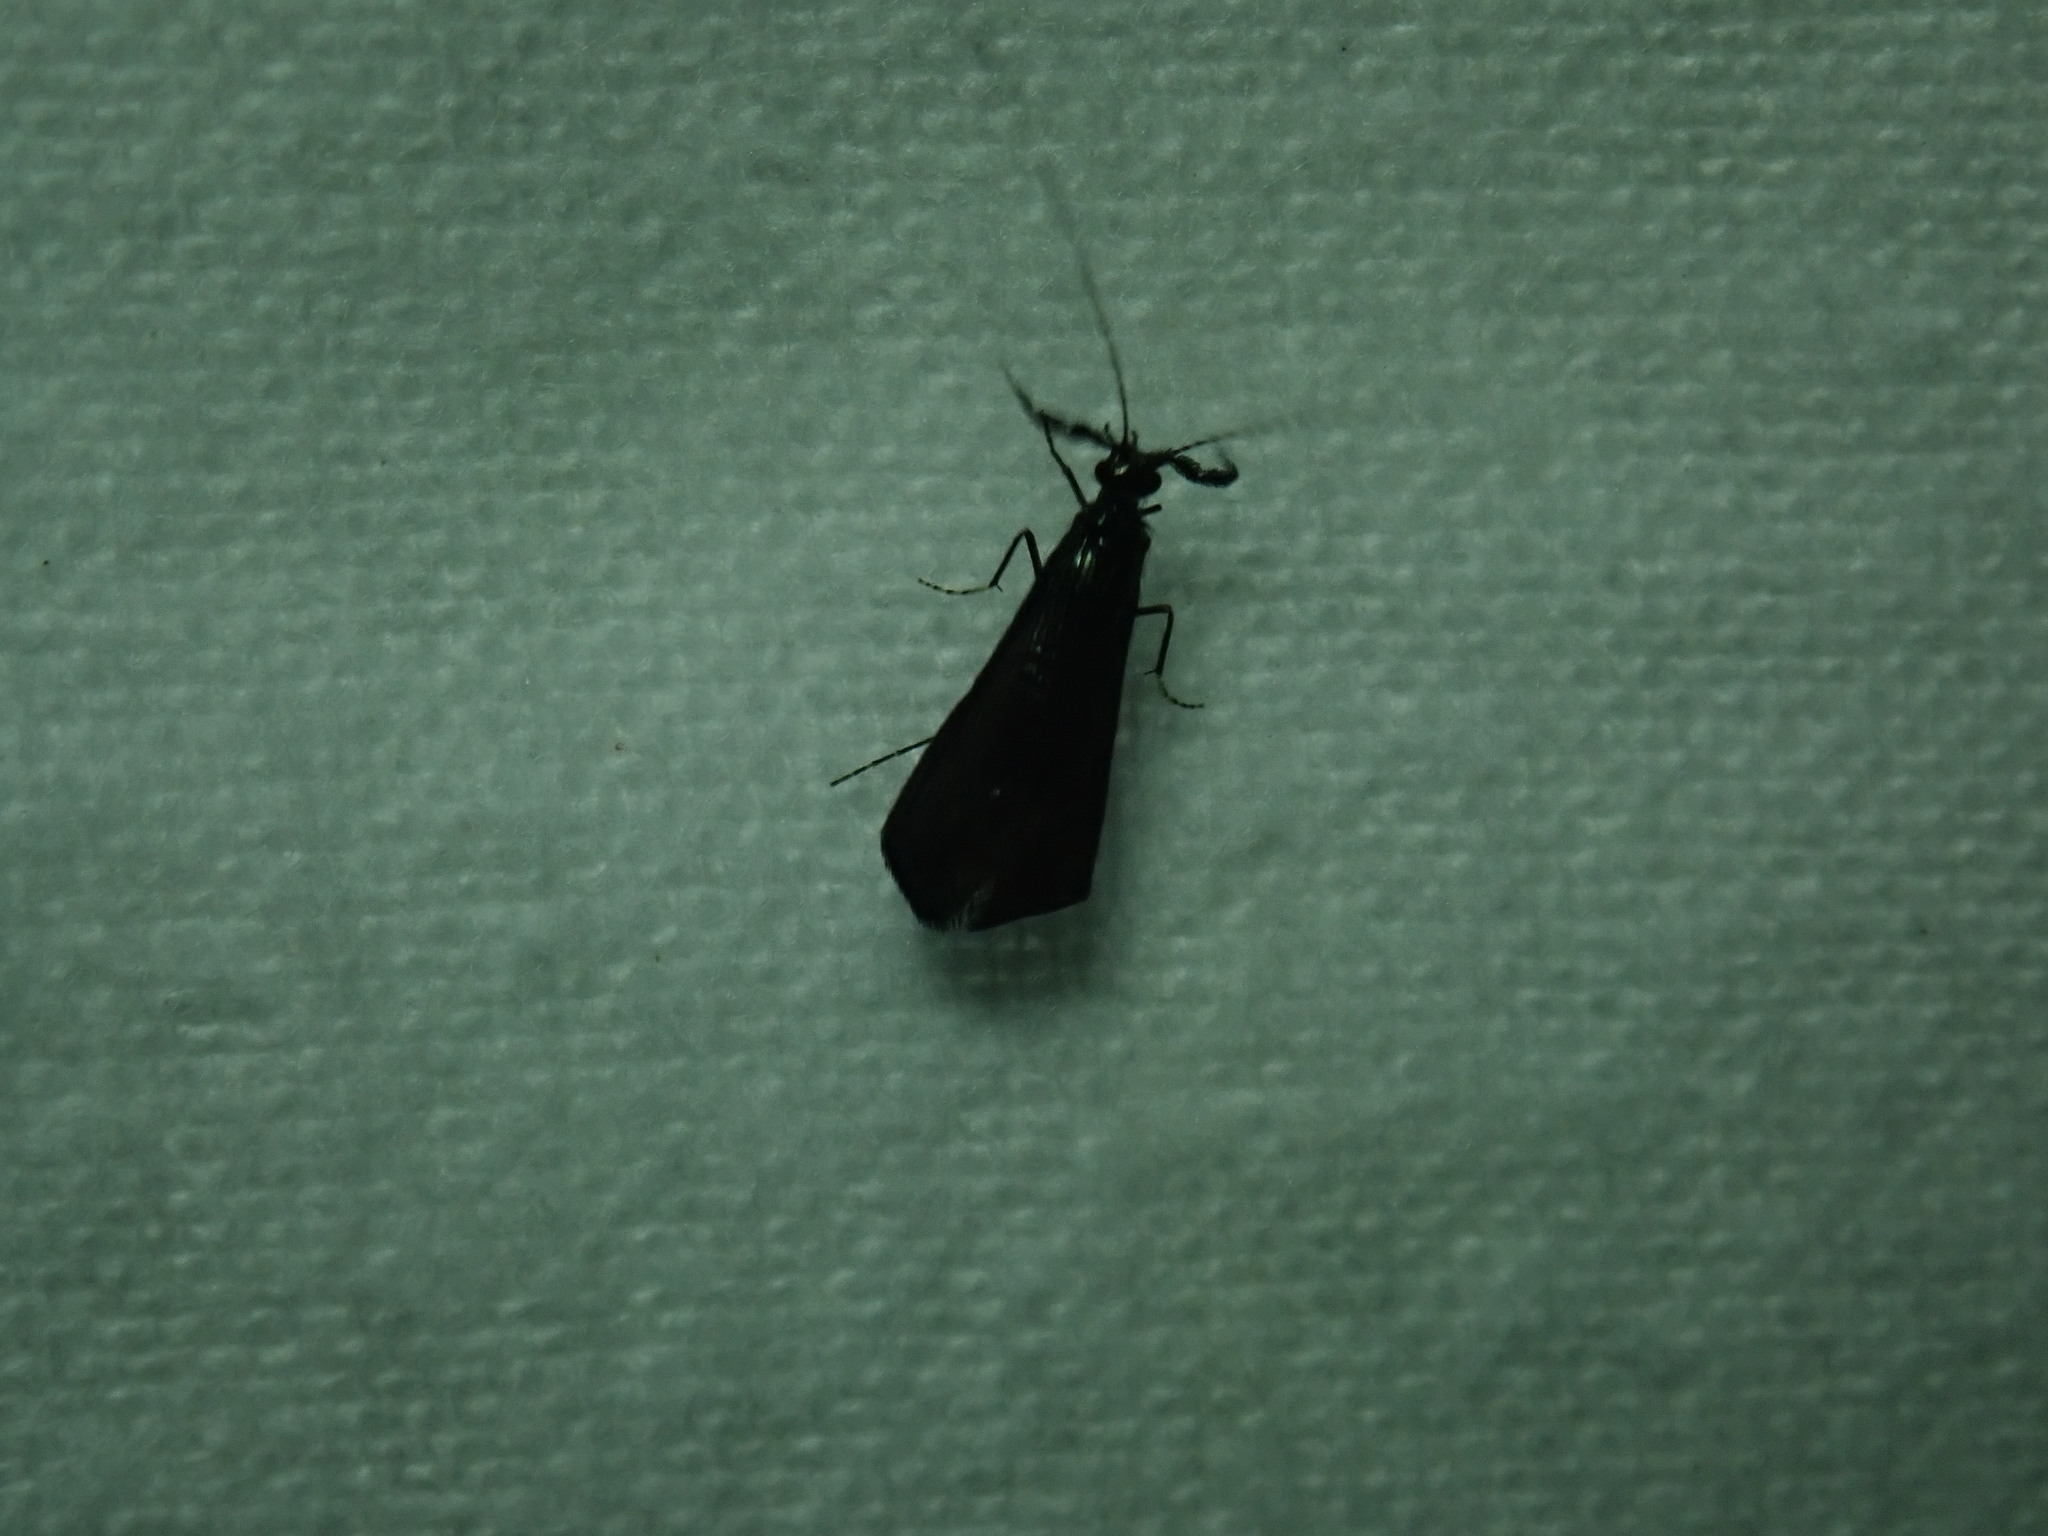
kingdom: Animalia
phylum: Arthropoda
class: Insecta
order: Trichoptera
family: Leptoceridae
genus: Mystacides
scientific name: Mystacides sepulchralis
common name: Black dancer caddisfly
